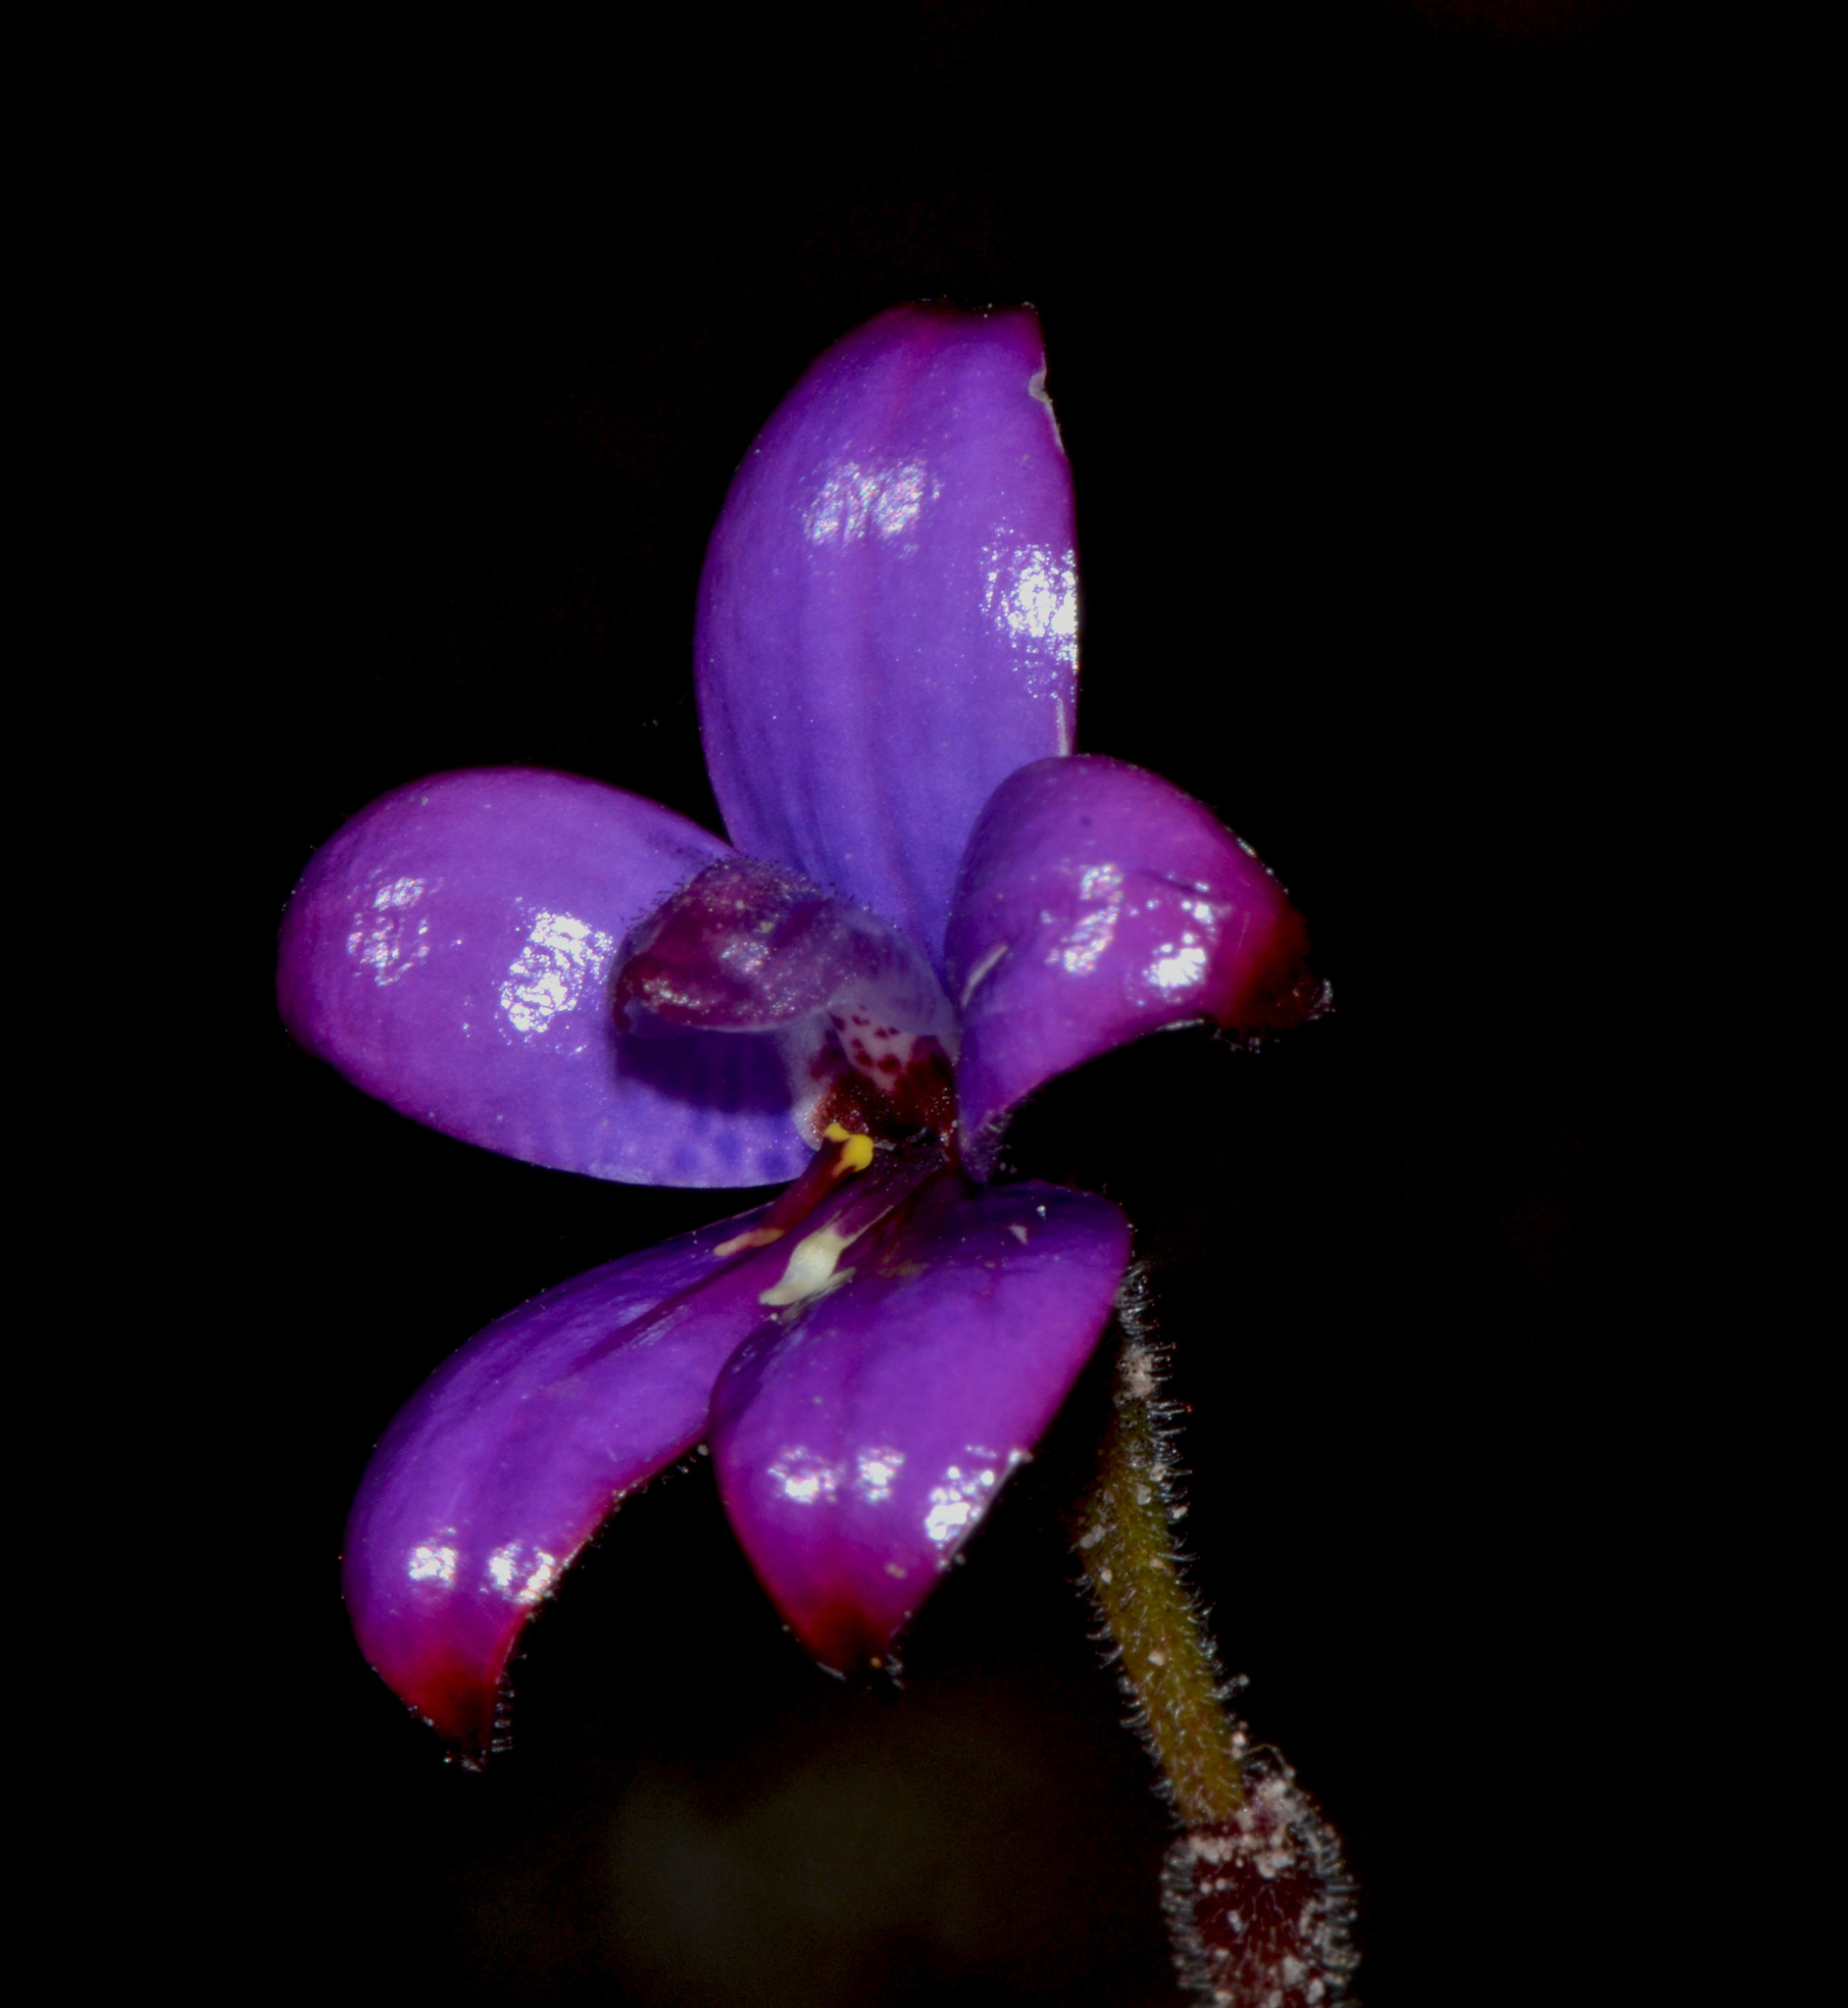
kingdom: Plantae
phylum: Tracheophyta
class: Liliopsida
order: Asparagales
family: Orchidaceae
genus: Caladenia
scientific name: Caladenia brunonis
